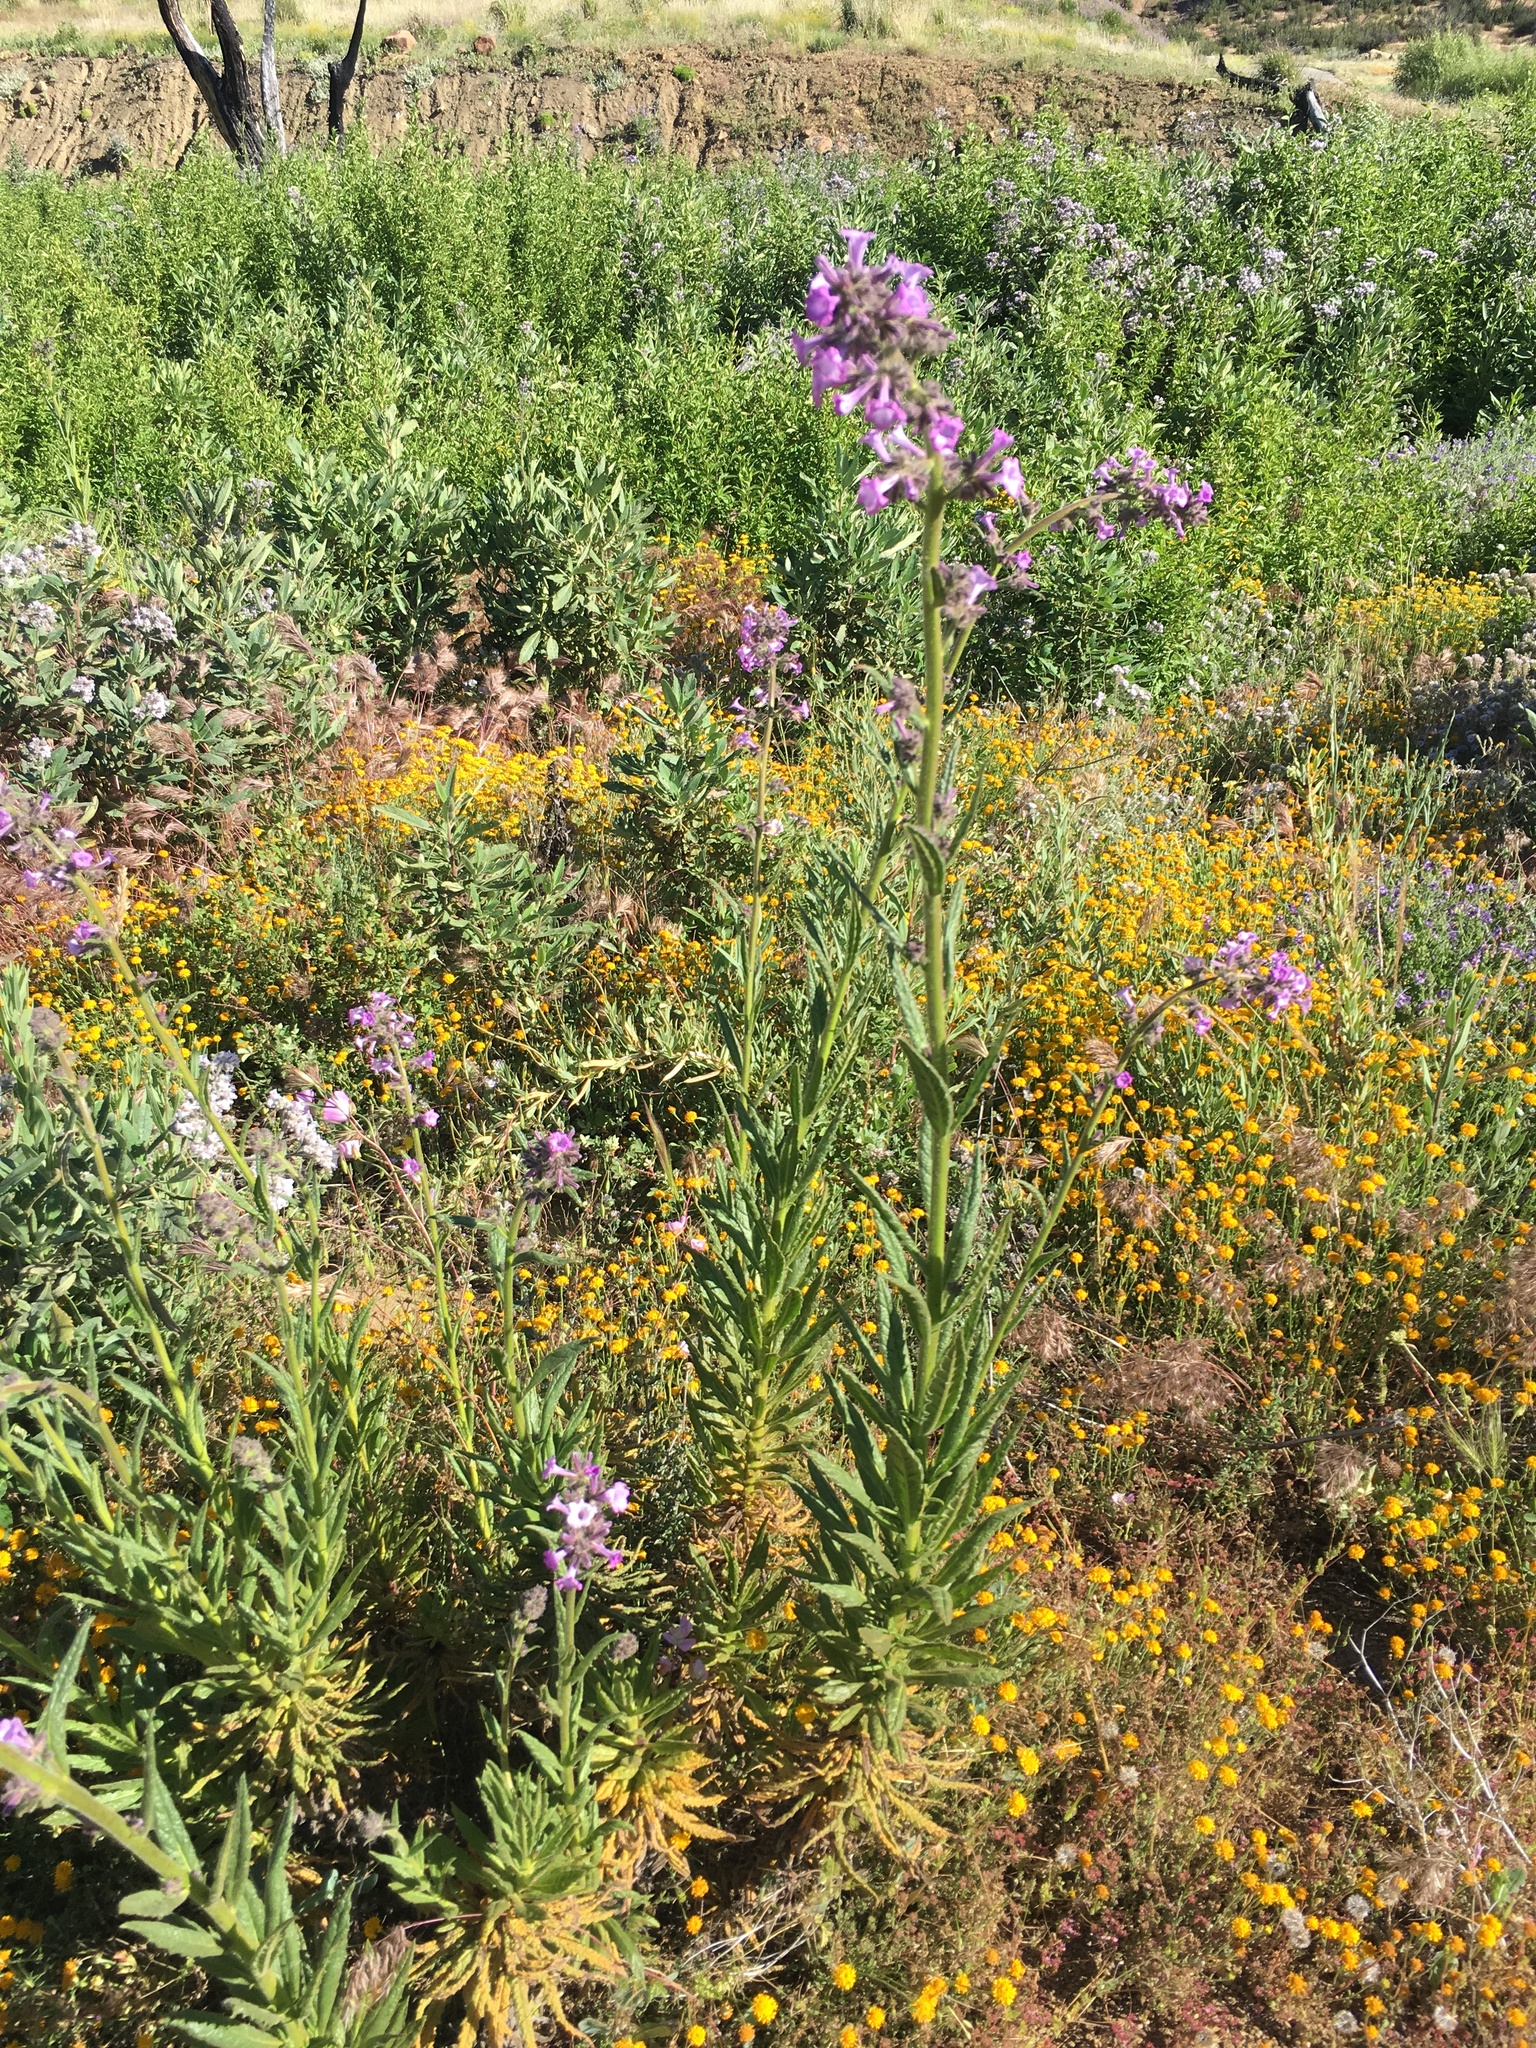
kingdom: Plantae
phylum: Tracheophyta
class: Magnoliopsida
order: Boraginales
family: Namaceae
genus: Turricula
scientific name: Turricula parryi
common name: Poodle-dog-bush
